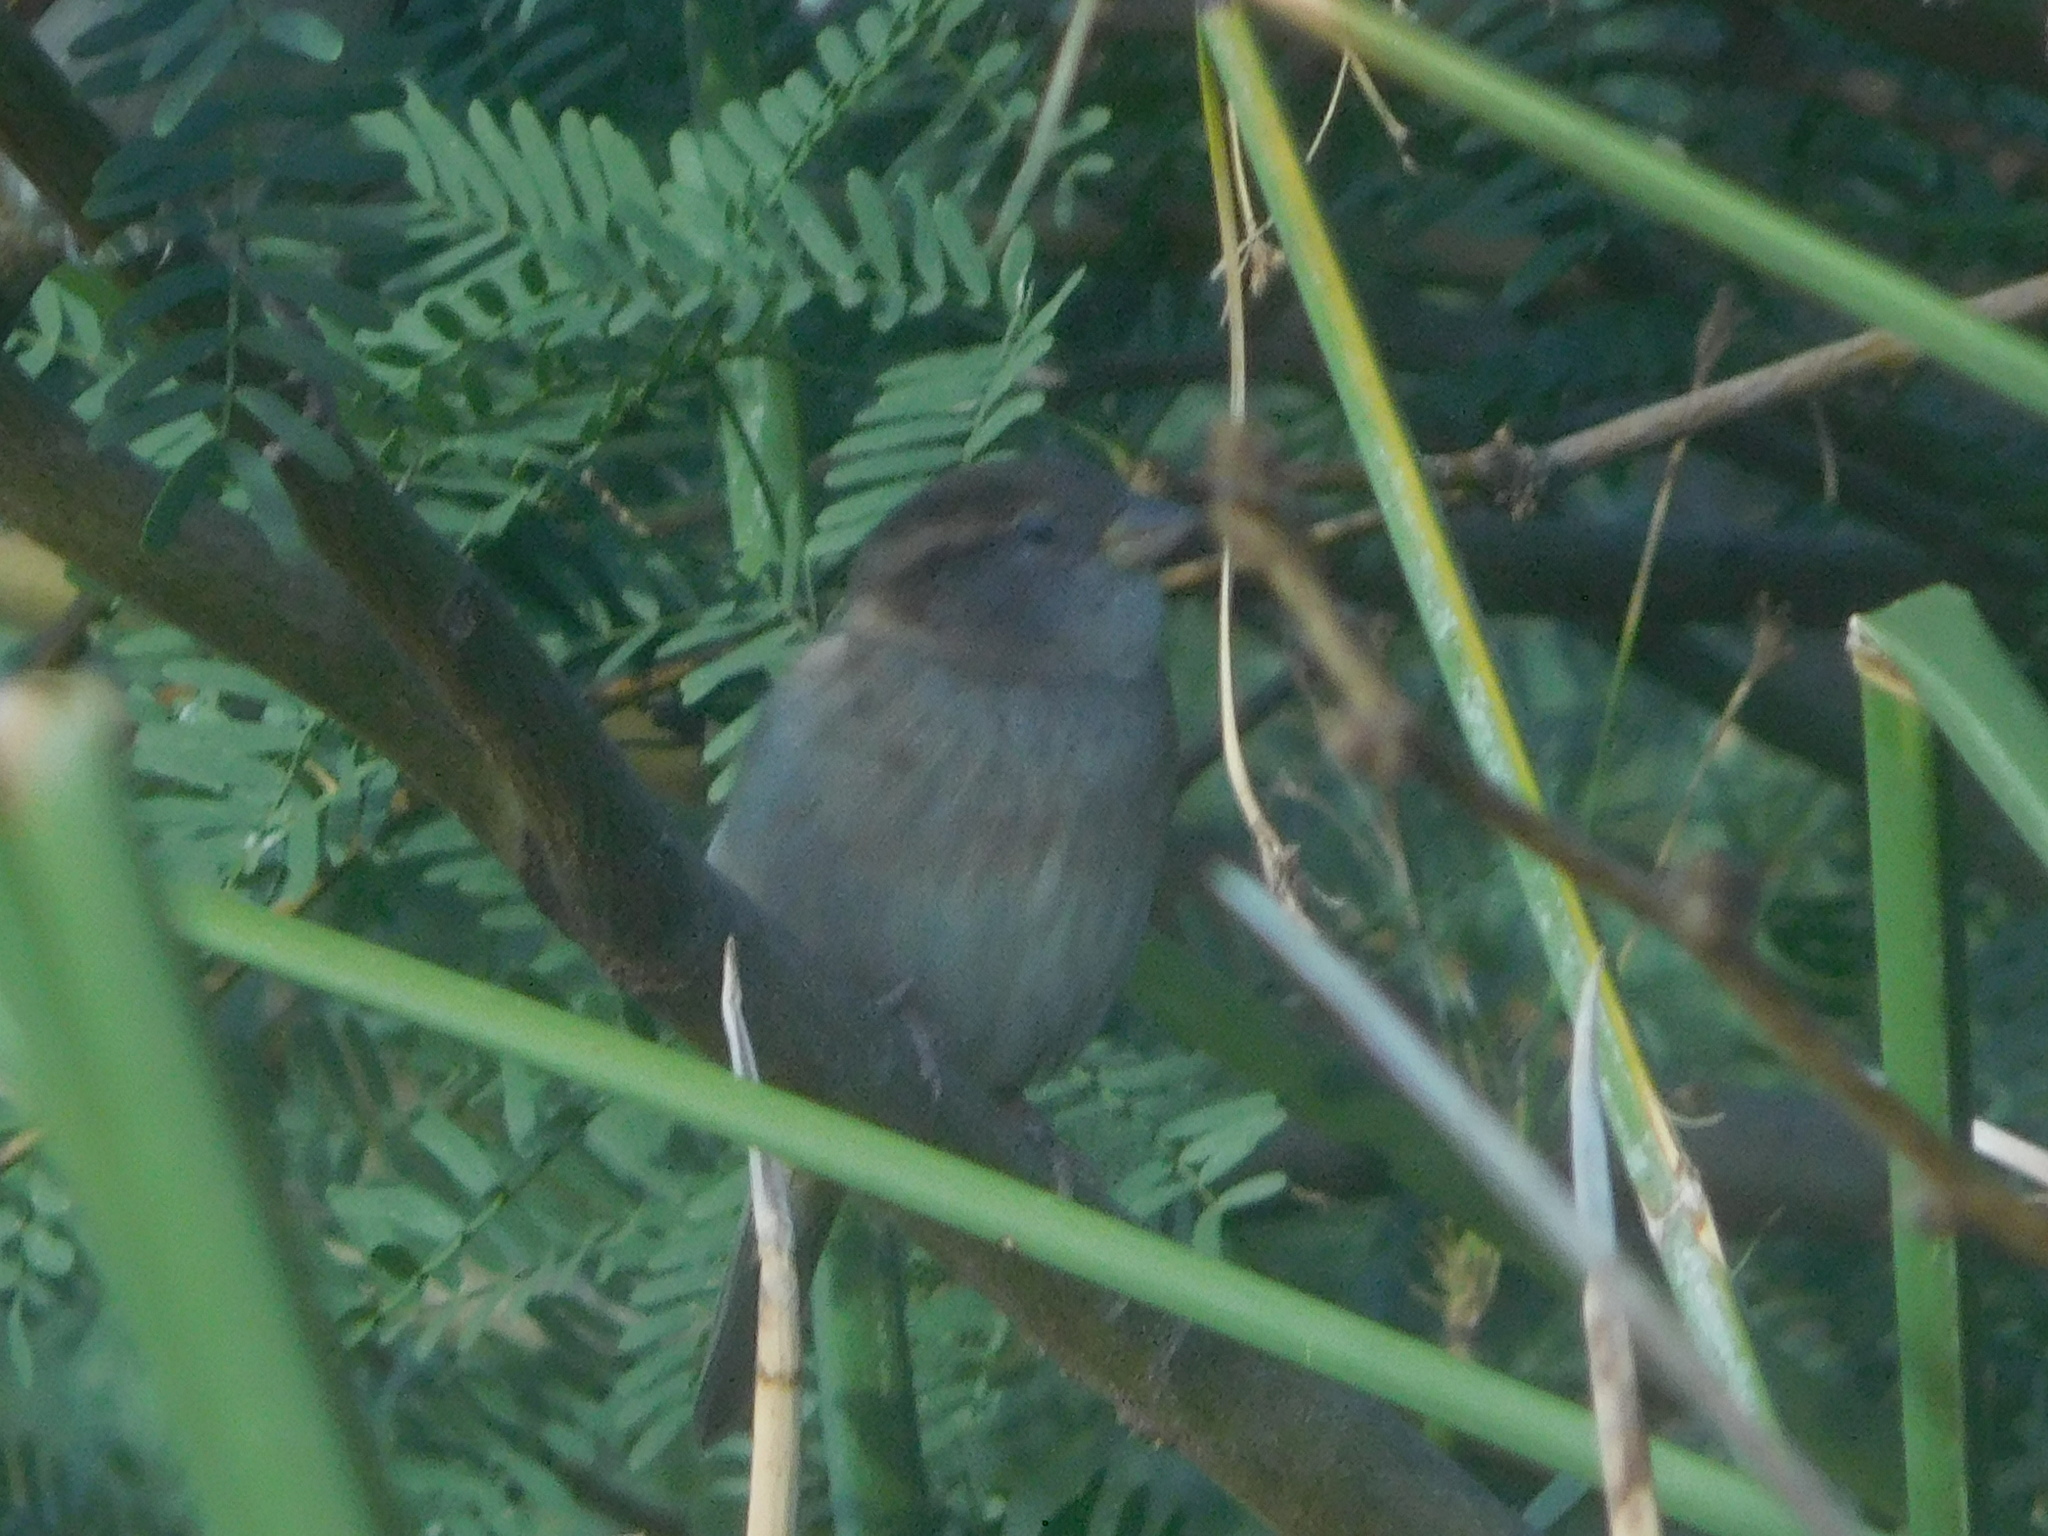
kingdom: Animalia
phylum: Chordata
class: Aves
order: Passeriformes
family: Passeridae
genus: Passer
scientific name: Passer domesticus
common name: House sparrow
